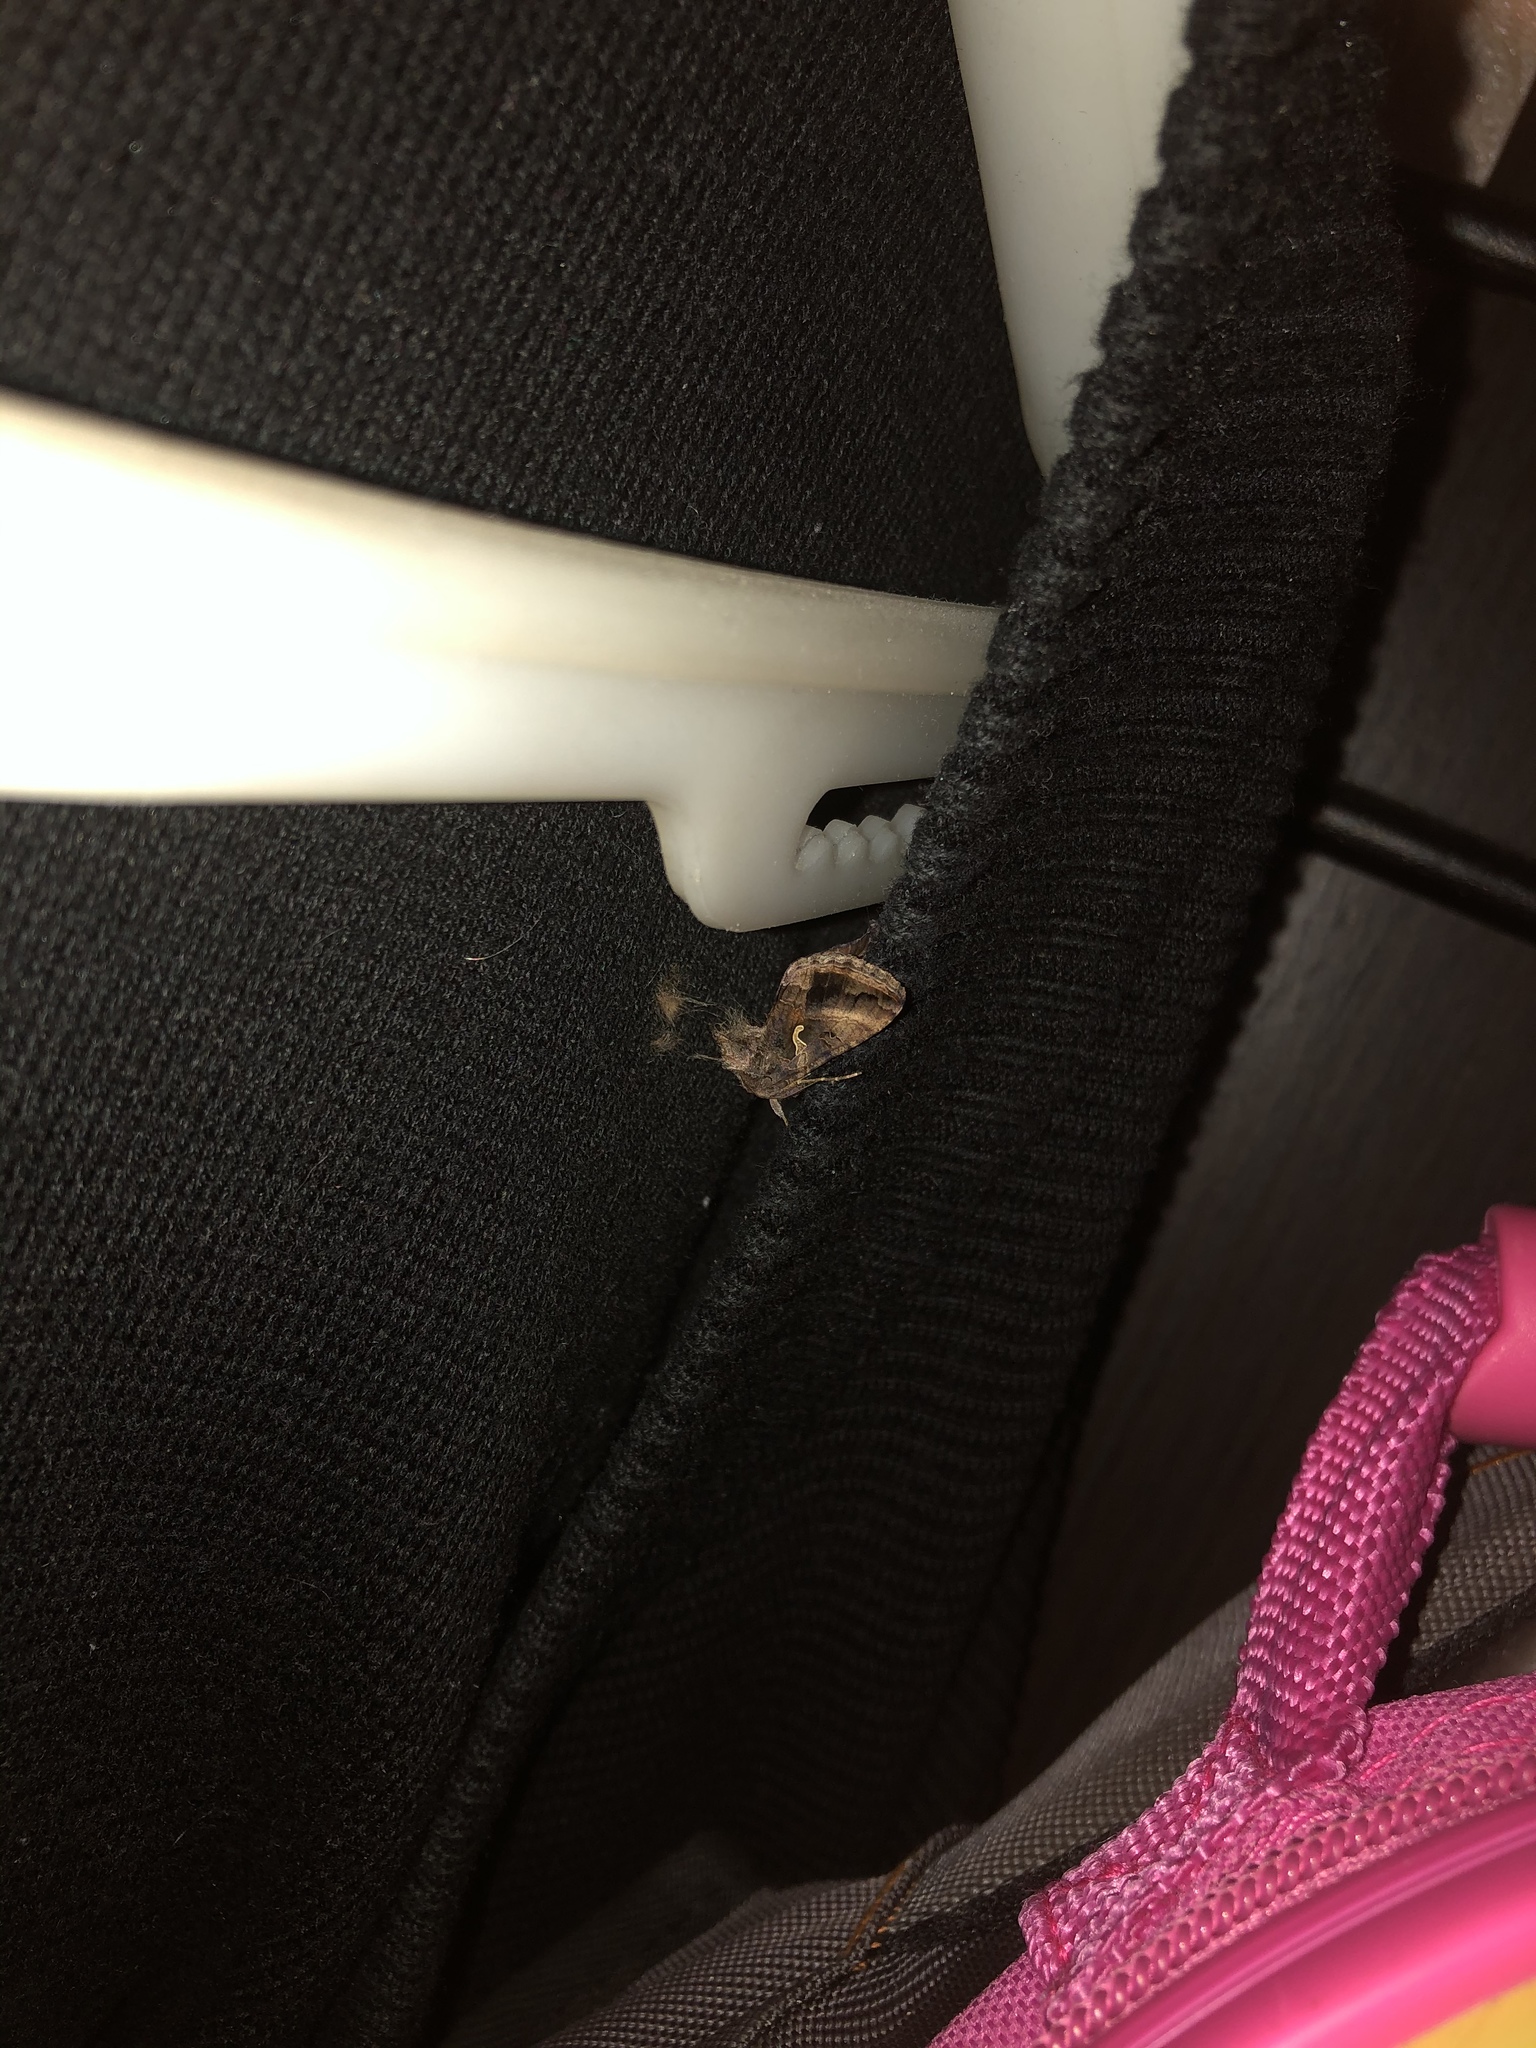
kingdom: Animalia
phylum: Arthropoda
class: Insecta
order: Lepidoptera
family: Noctuidae
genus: Autographa
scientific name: Autographa gamma
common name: Silver y
